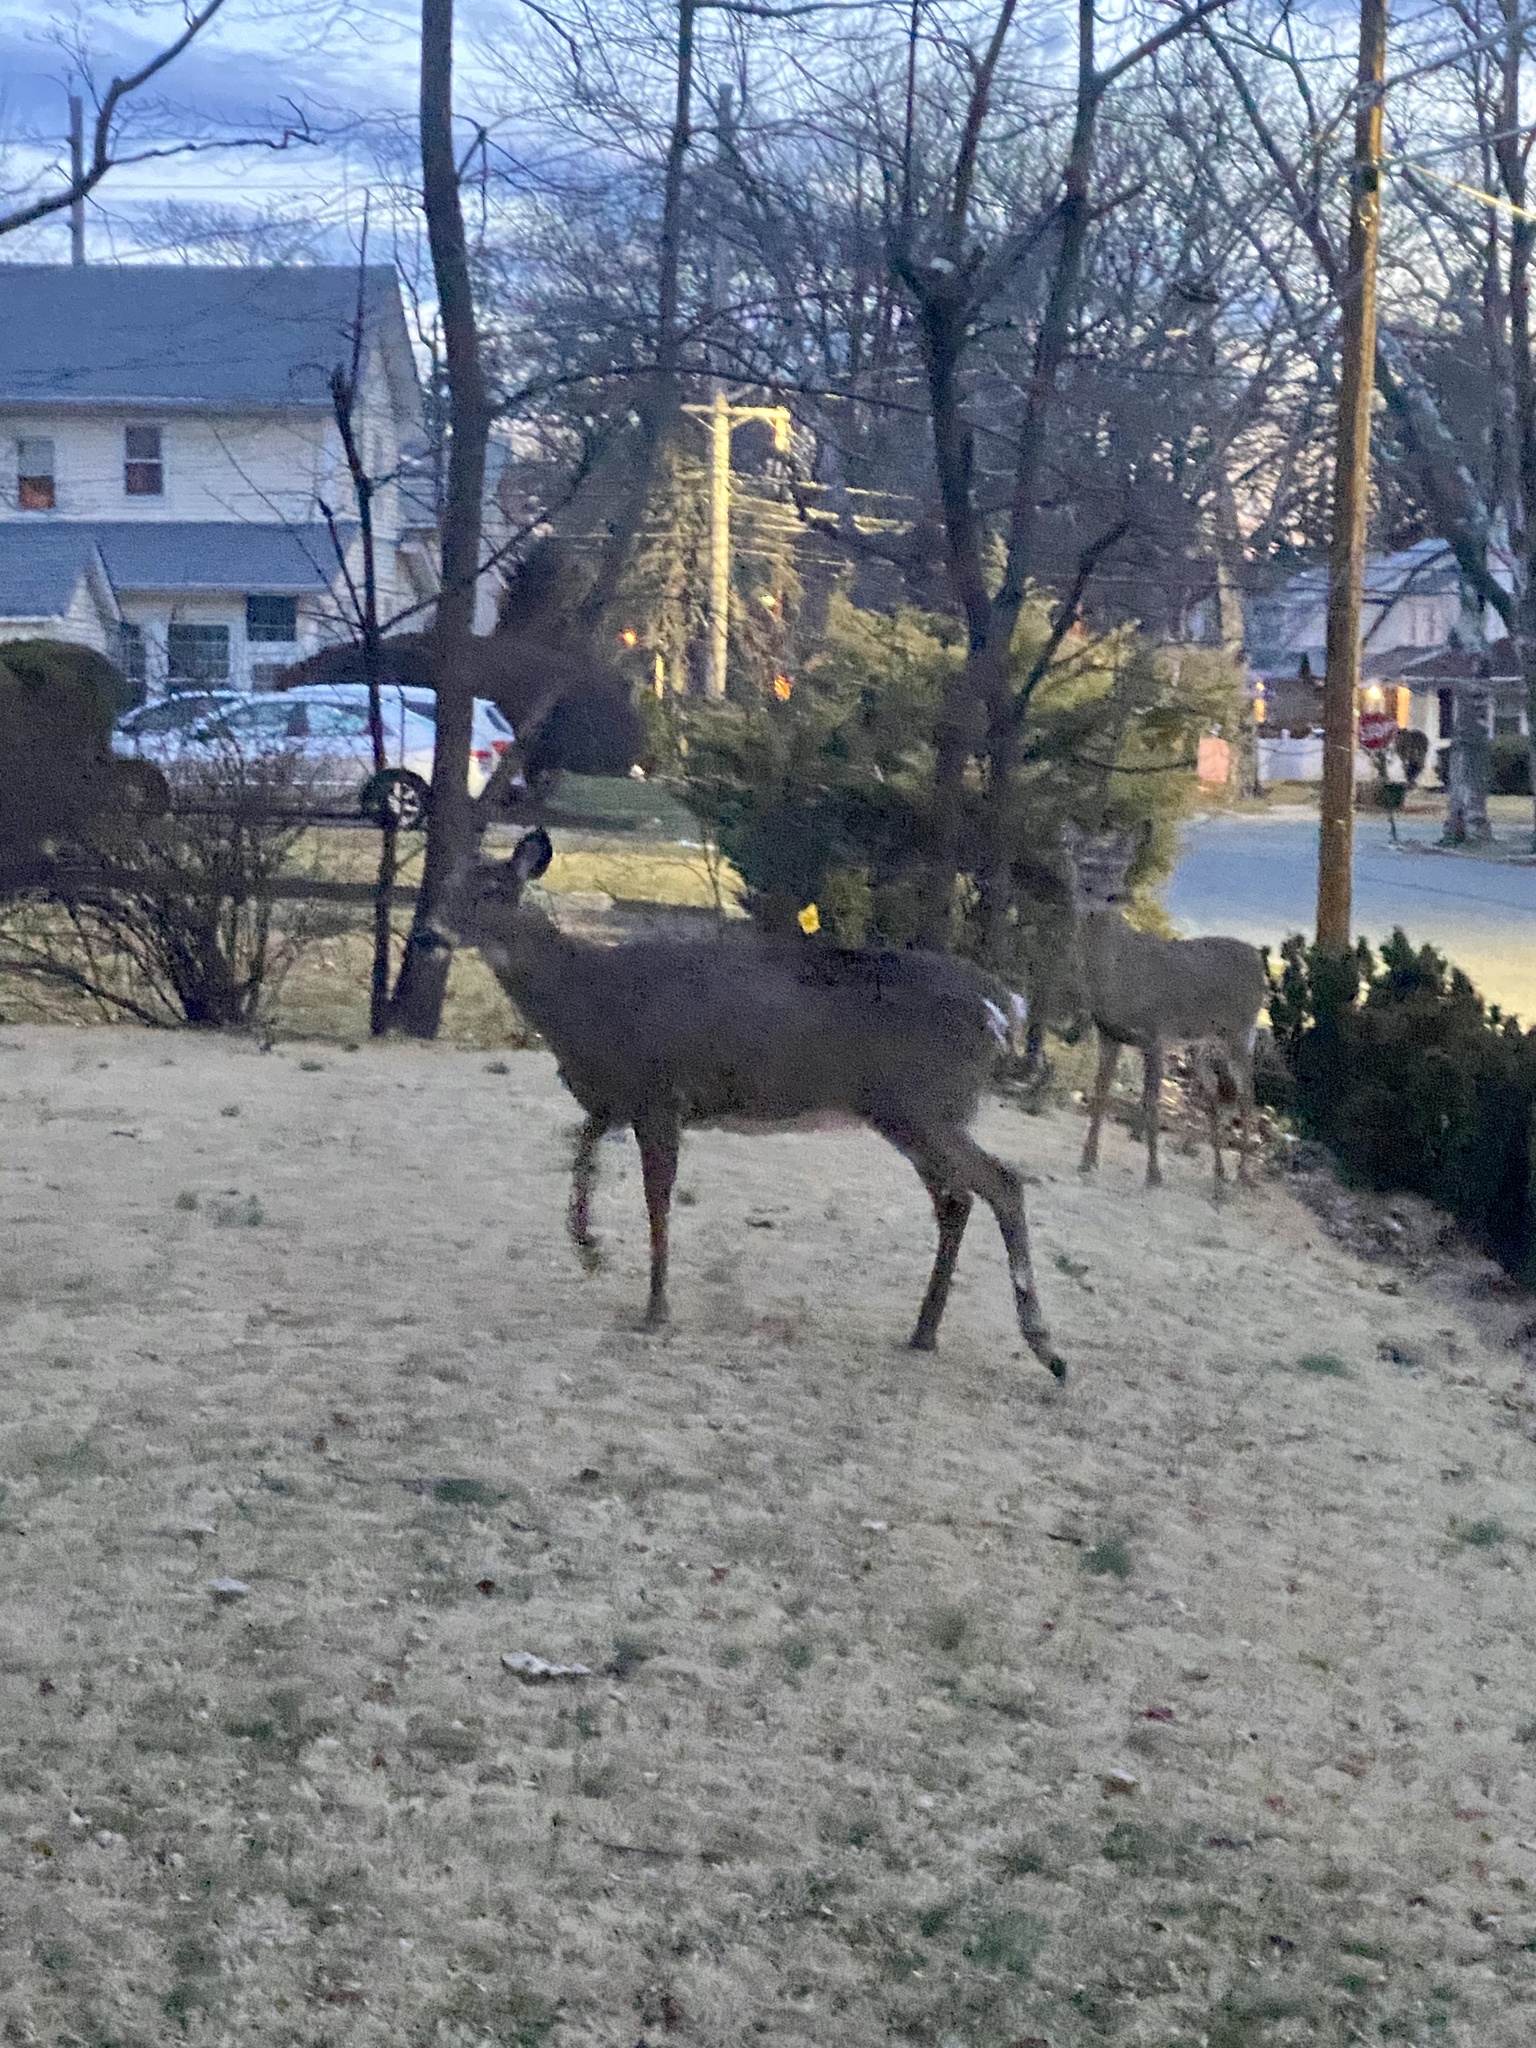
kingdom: Animalia
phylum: Chordata
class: Mammalia
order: Artiodactyla
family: Cervidae
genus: Odocoileus
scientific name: Odocoileus virginianus
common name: White-tailed deer
